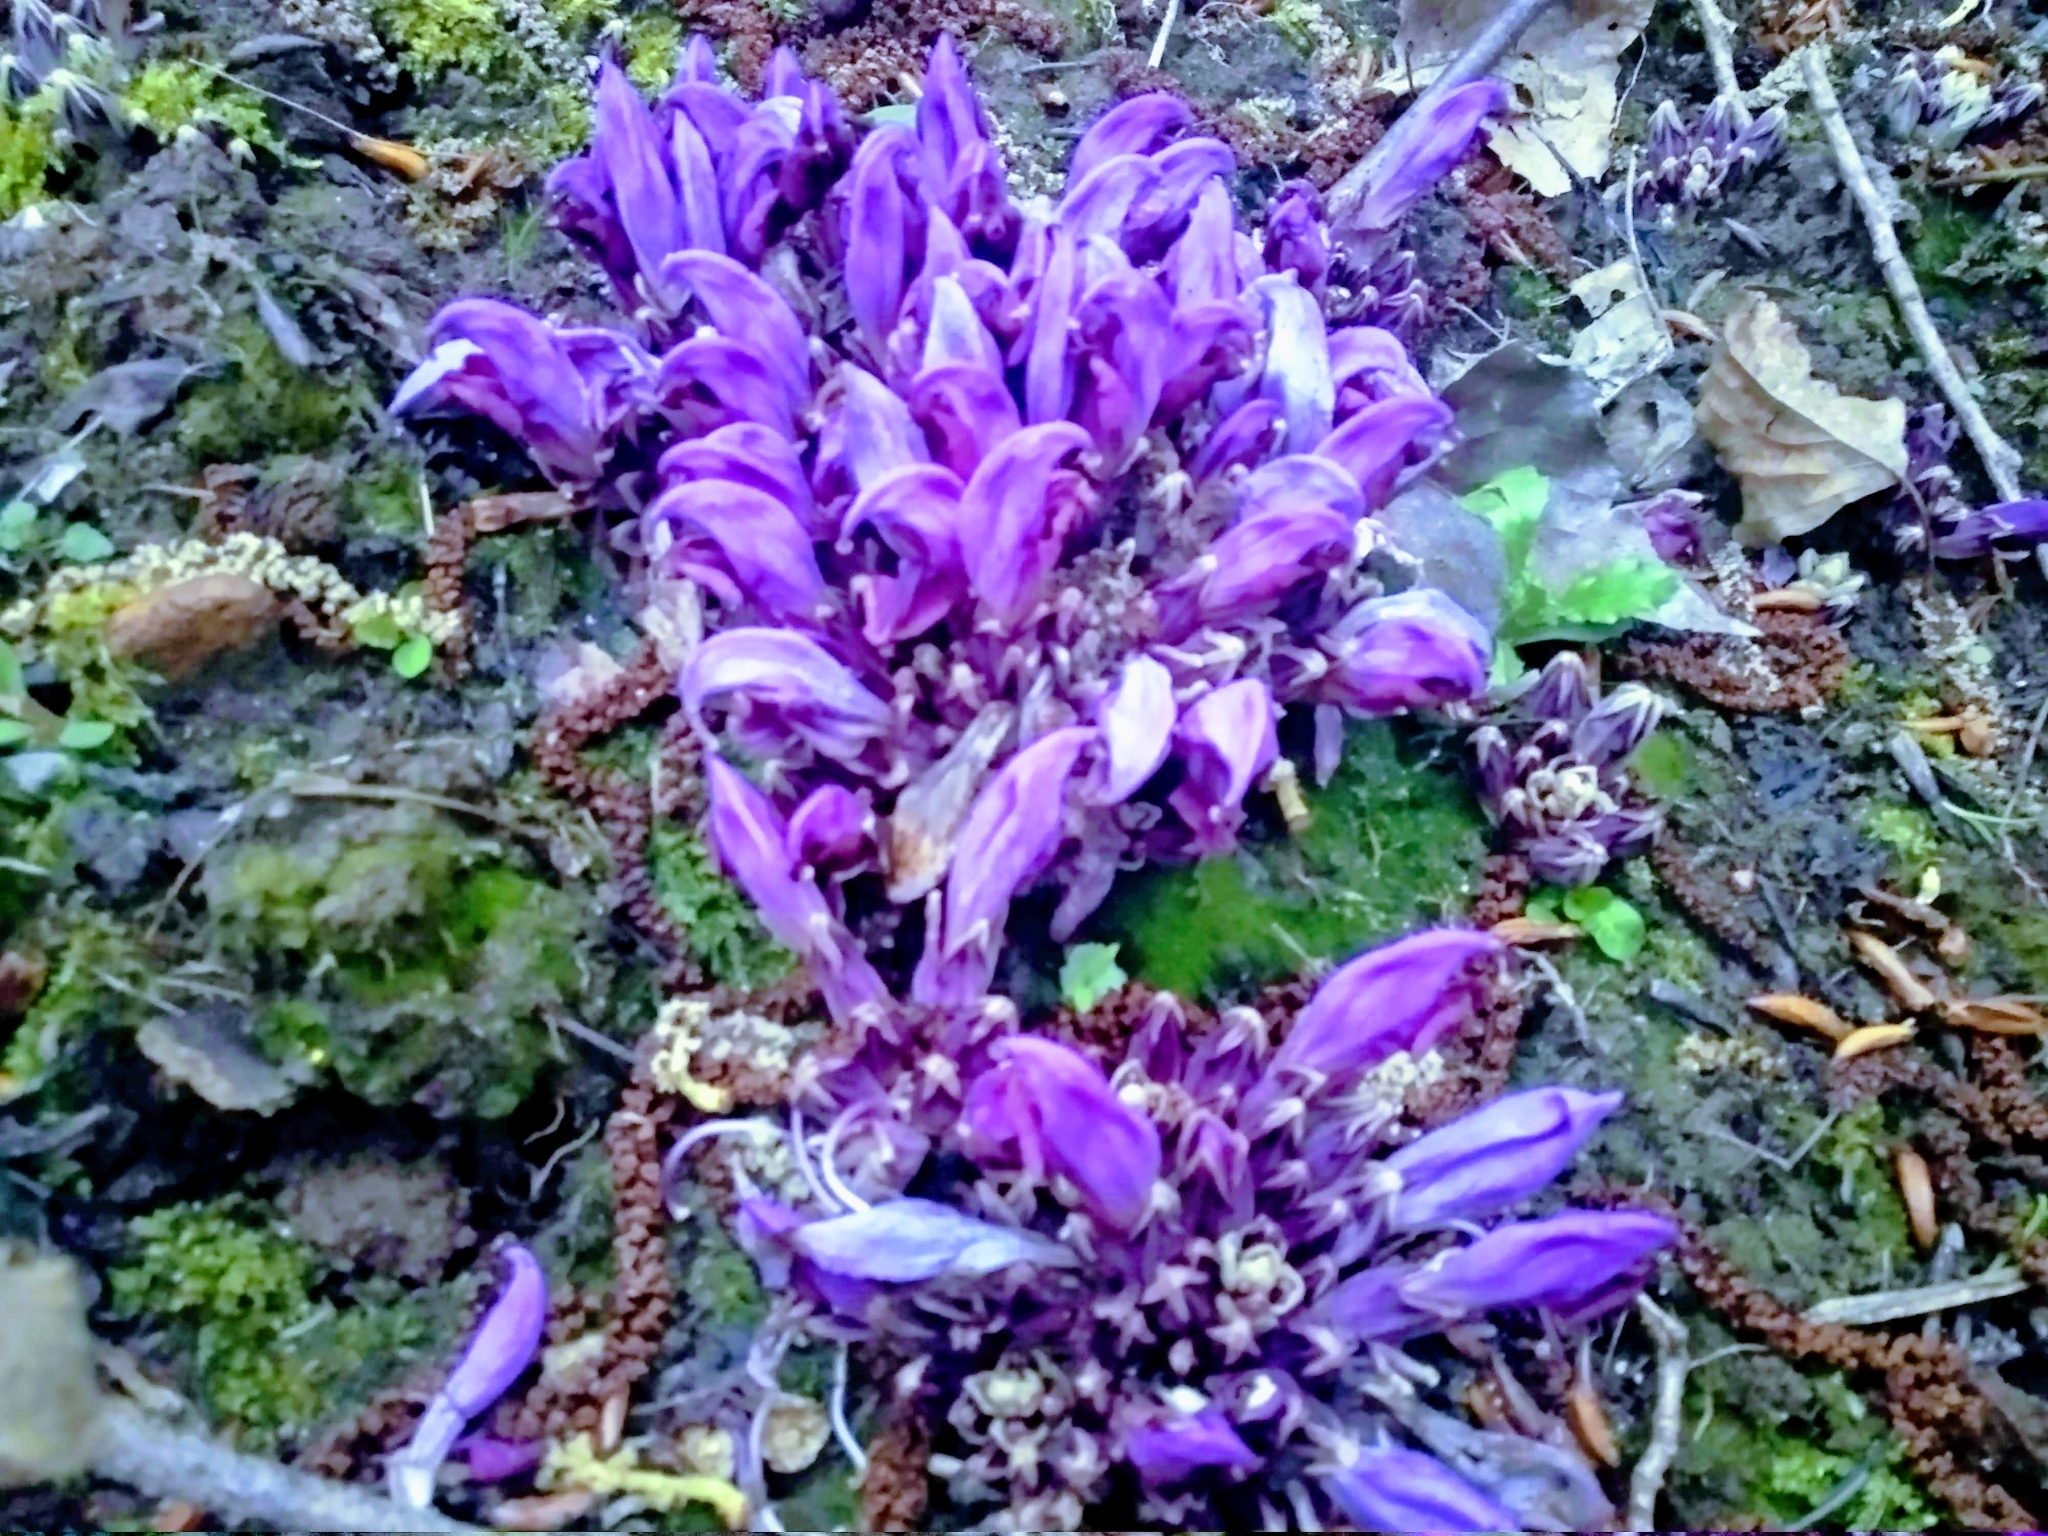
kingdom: Plantae
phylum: Tracheophyta
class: Magnoliopsida
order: Lamiales
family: Orobanchaceae
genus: Lathraea
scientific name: Lathraea clandestina
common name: Purple toothwort
